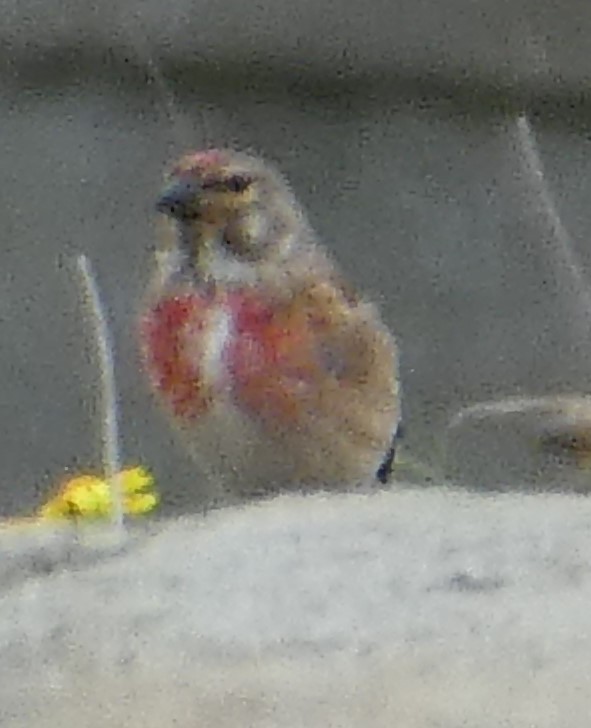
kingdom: Animalia
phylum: Chordata
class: Aves
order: Passeriformes
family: Fringillidae
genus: Linaria
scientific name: Linaria cannabina
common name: Common linnet
